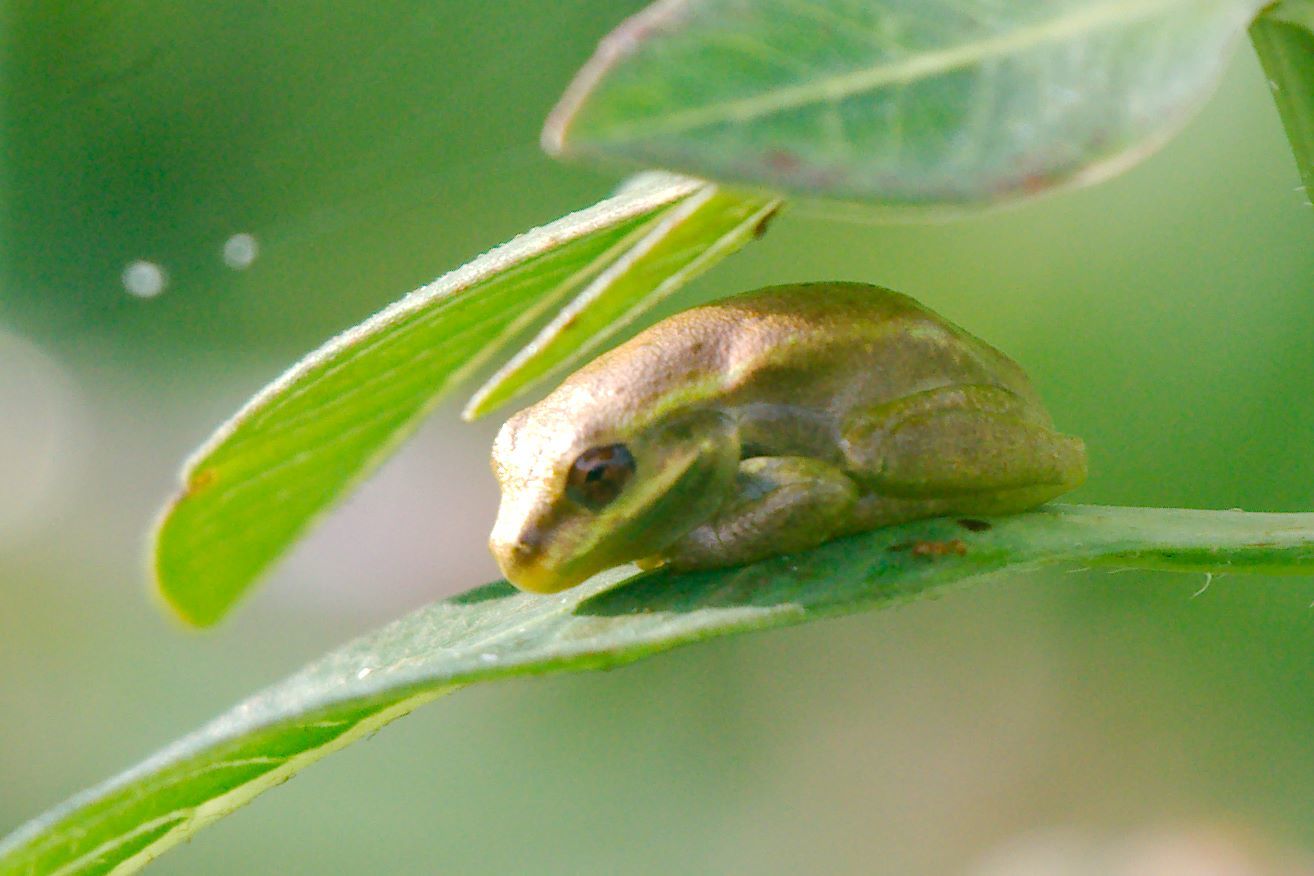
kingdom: Animalia
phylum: Chordata
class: Amphibia
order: Anura
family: Hylidae
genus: Osteopilus
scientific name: Osteopilus septentrionalis
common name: Cuban treefrog
